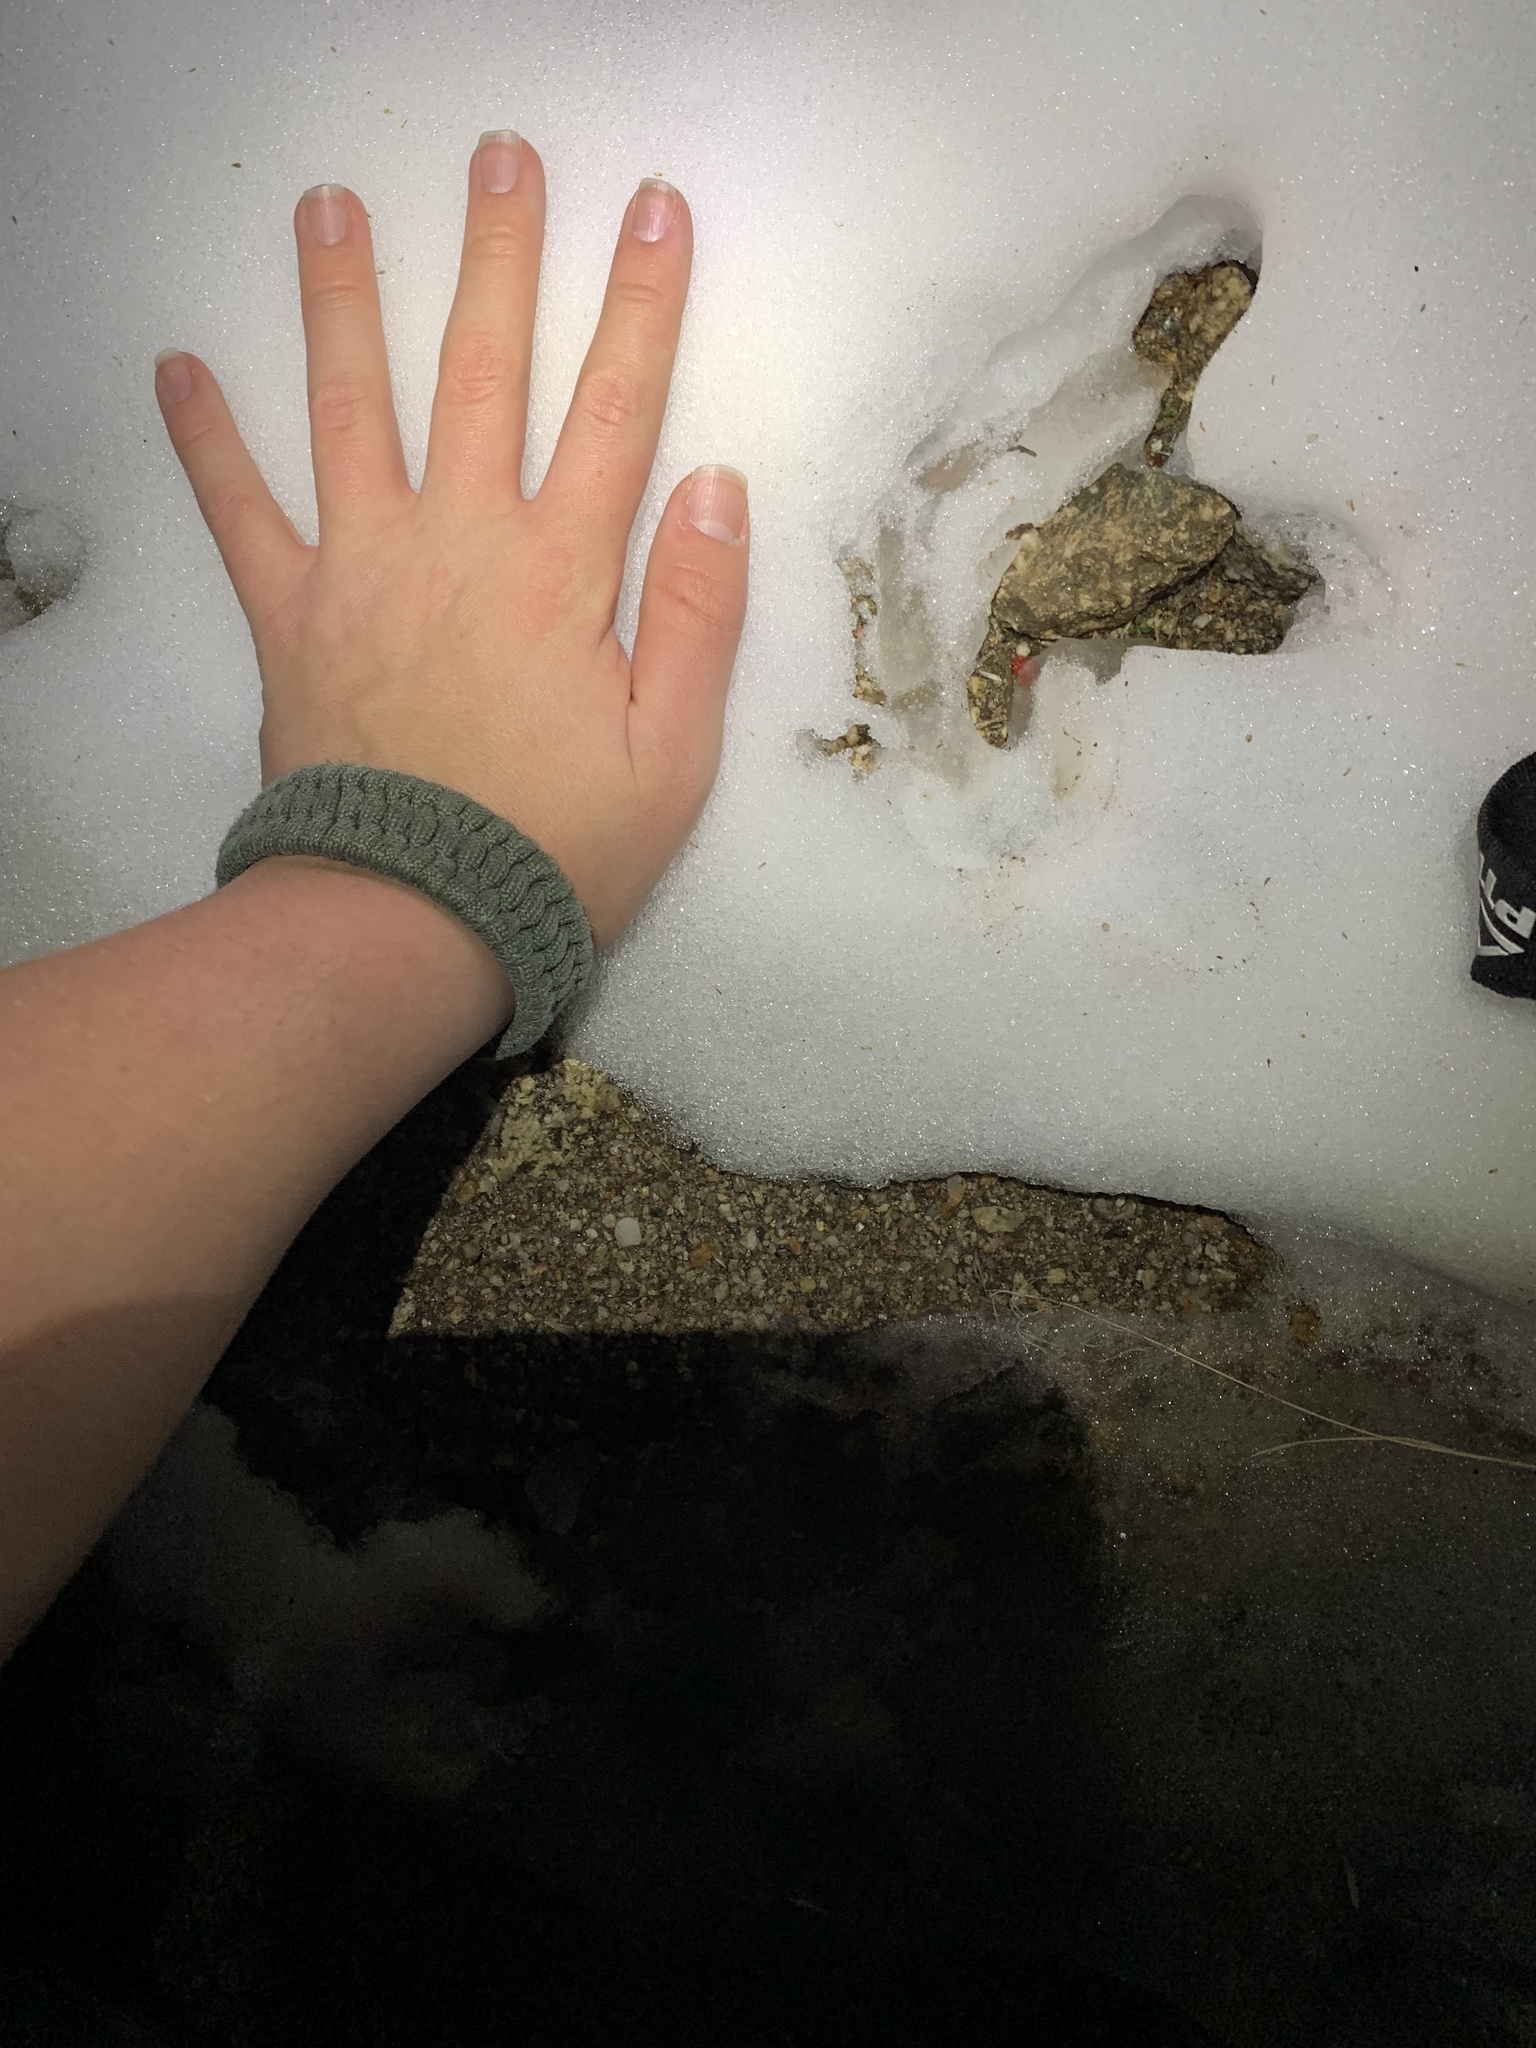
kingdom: Animalia
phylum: Chordata
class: Aves
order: Galliformes
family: Phasianidae
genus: Meleagris
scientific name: Meleagris gallopavo
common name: Wild turkey
